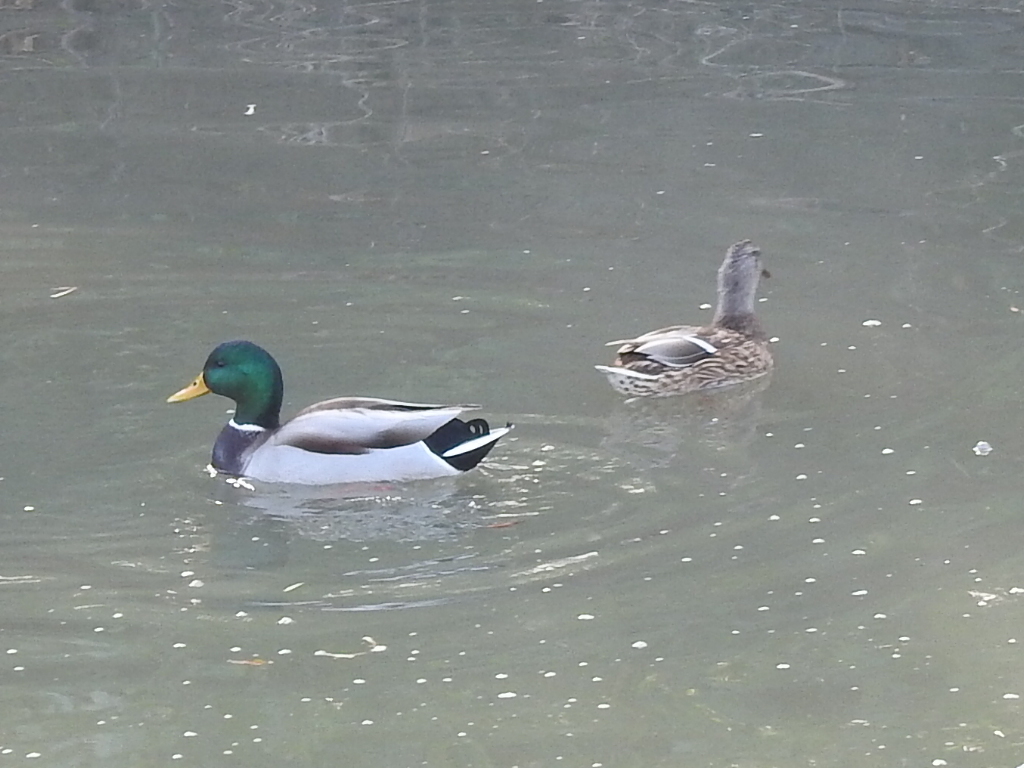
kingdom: Animalia
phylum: Chordata
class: Aves
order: Anseriformes
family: Anatidae
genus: Anas
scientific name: Anas platyrhynchos
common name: Mallard
